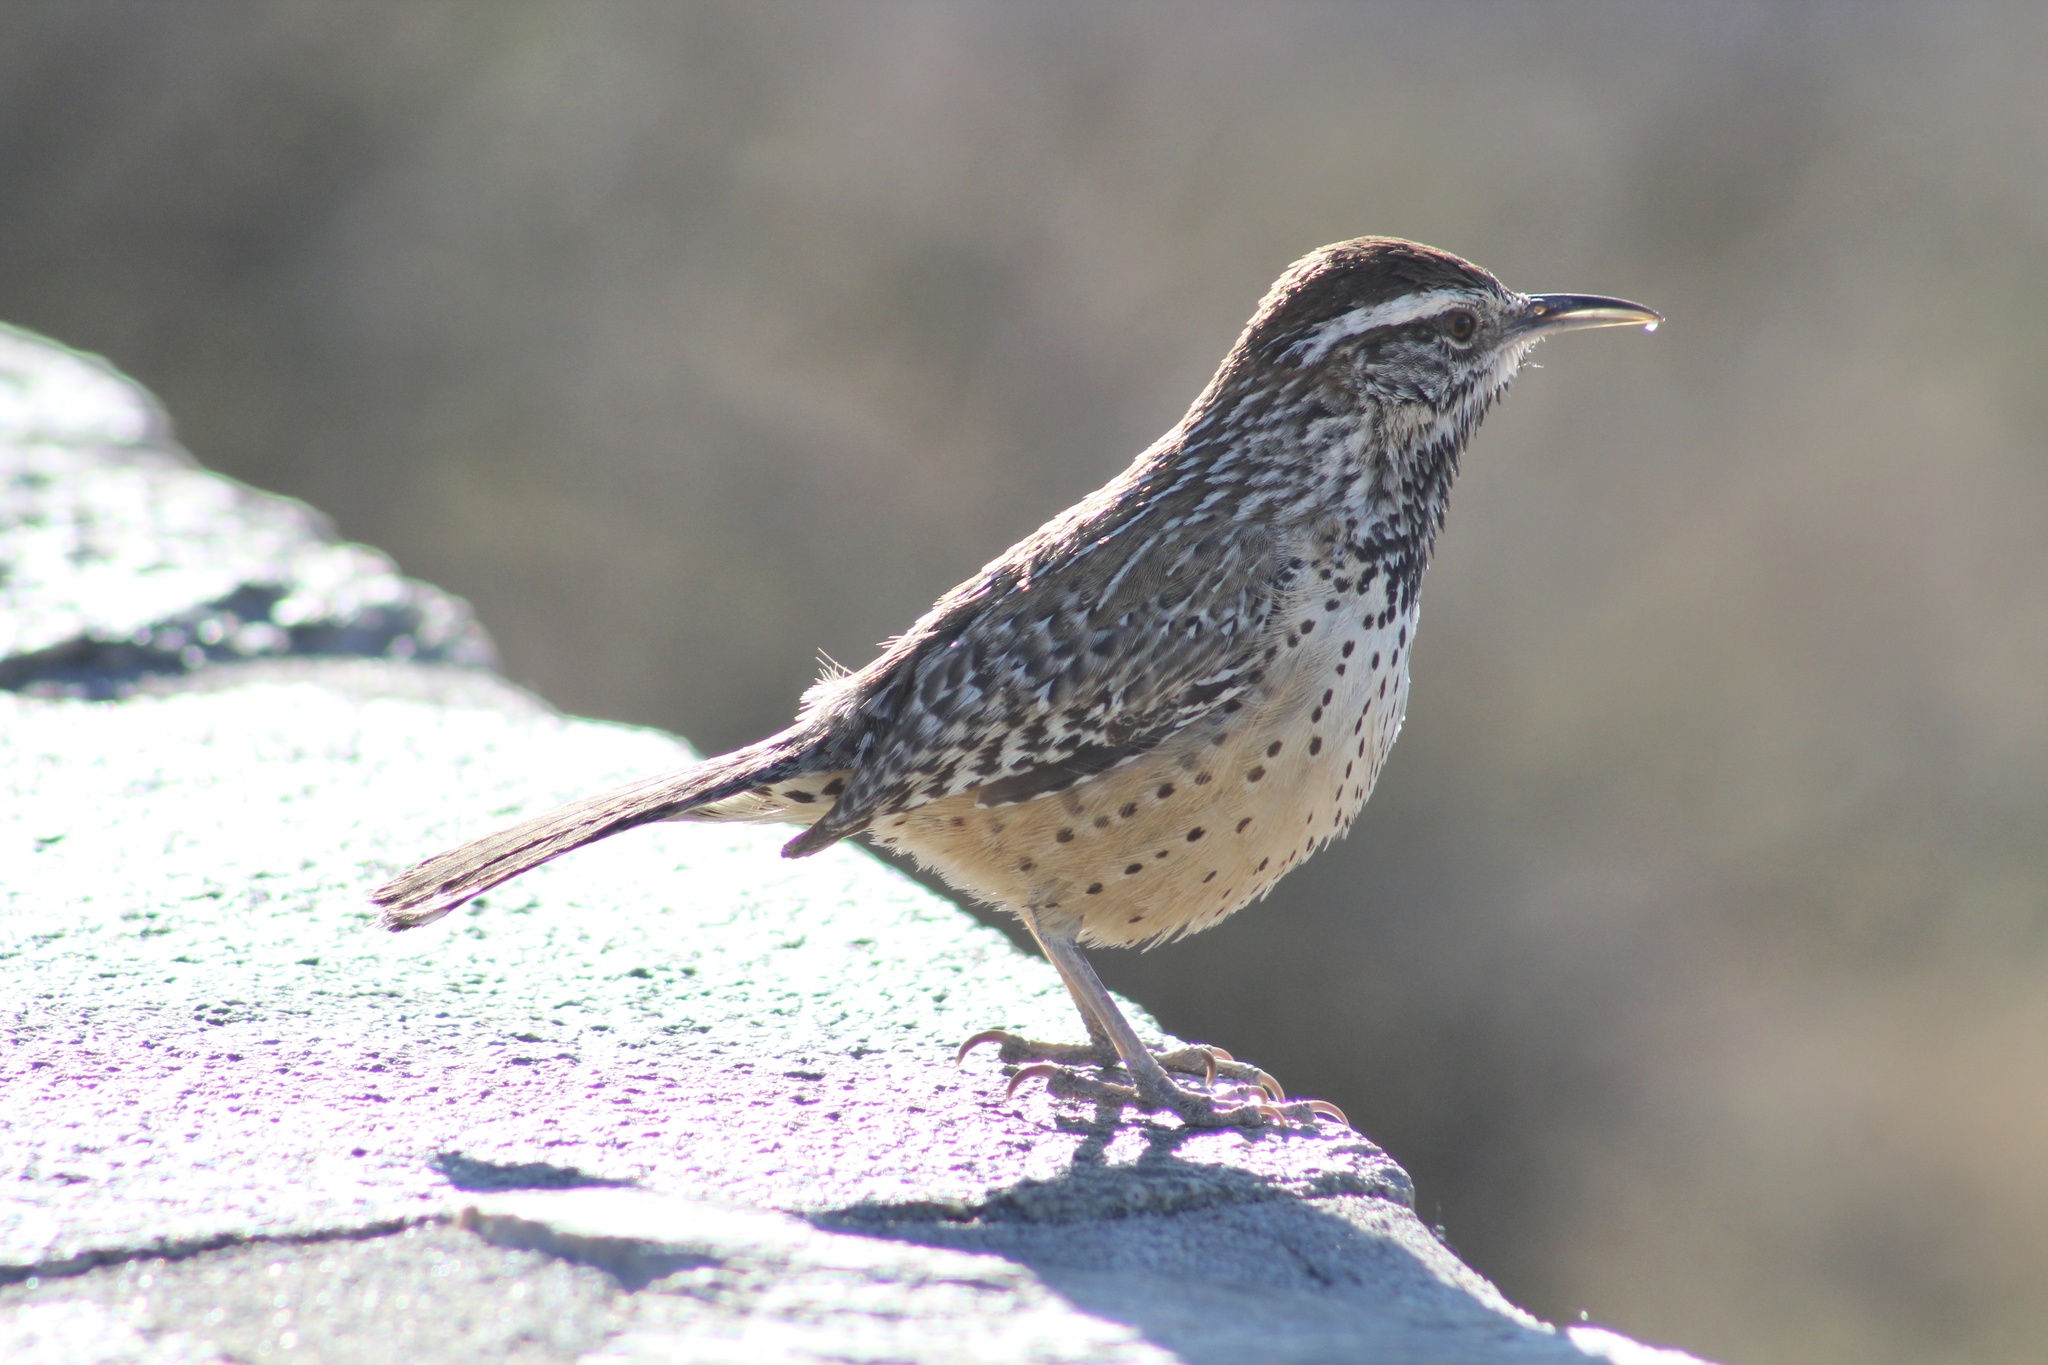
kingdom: Animalia
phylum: Chordata
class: Aves
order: Passeriformes
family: Troglodytidae
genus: Campylorhynchus
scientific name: Campylorhynchus brunneicapillus
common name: Cactus wren
